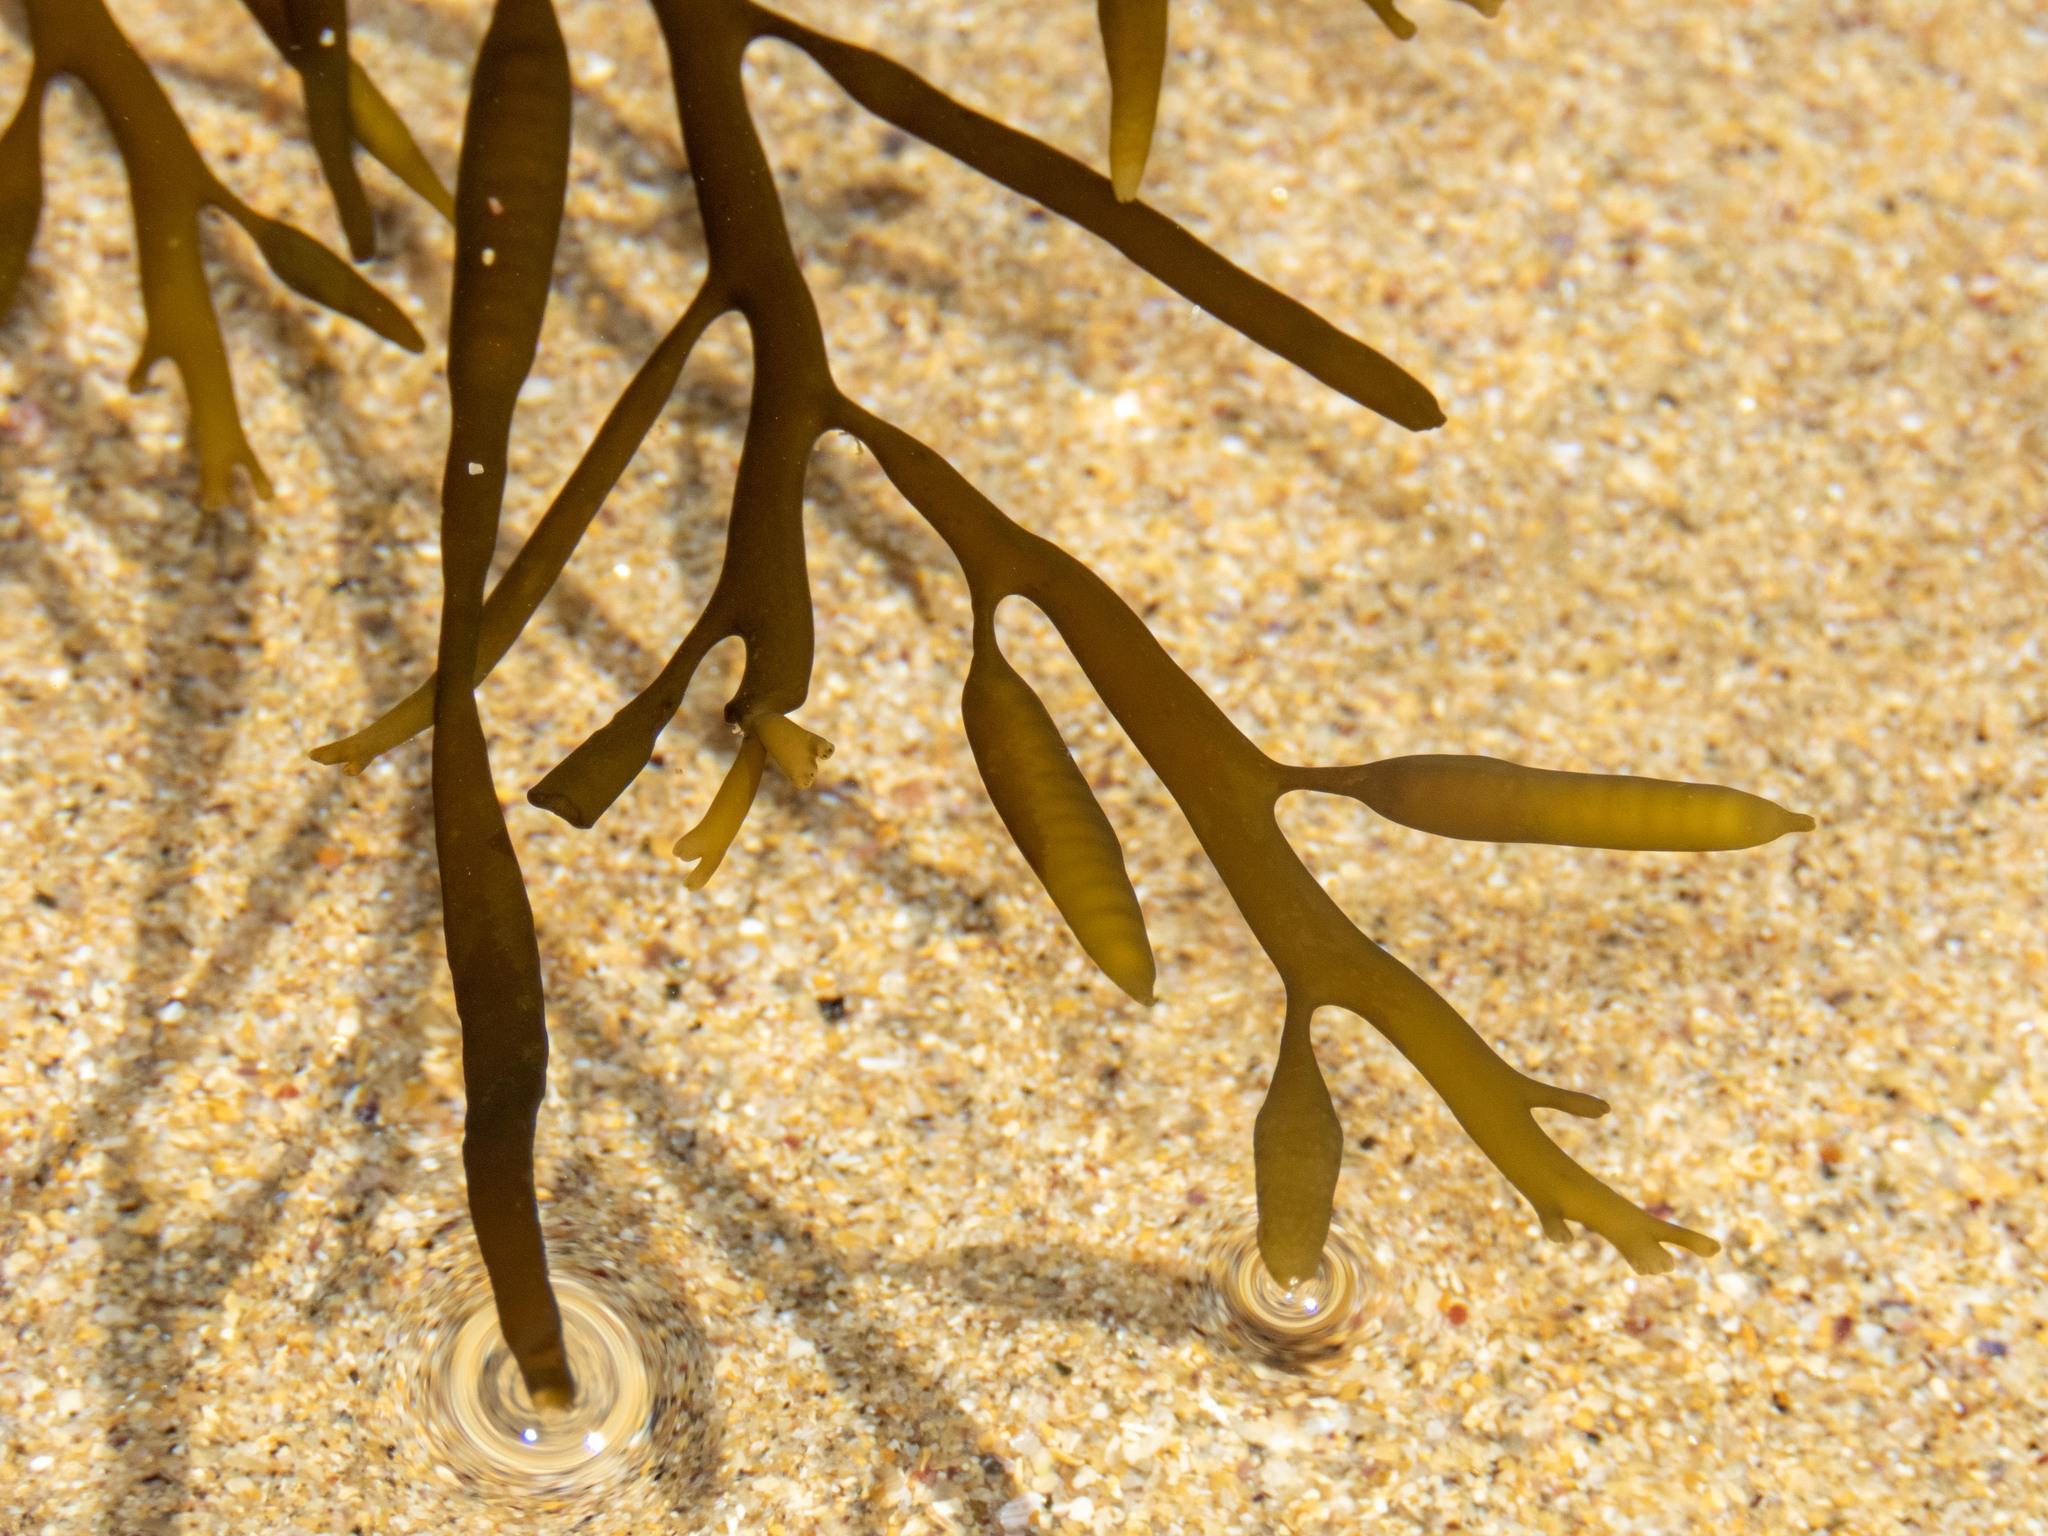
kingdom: Chromista
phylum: Ochrophyta
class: Phaeophyceae
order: Fucales
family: Sargassaceae
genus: Halidrys
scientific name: Halidrys siliquosa
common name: Sea oak
